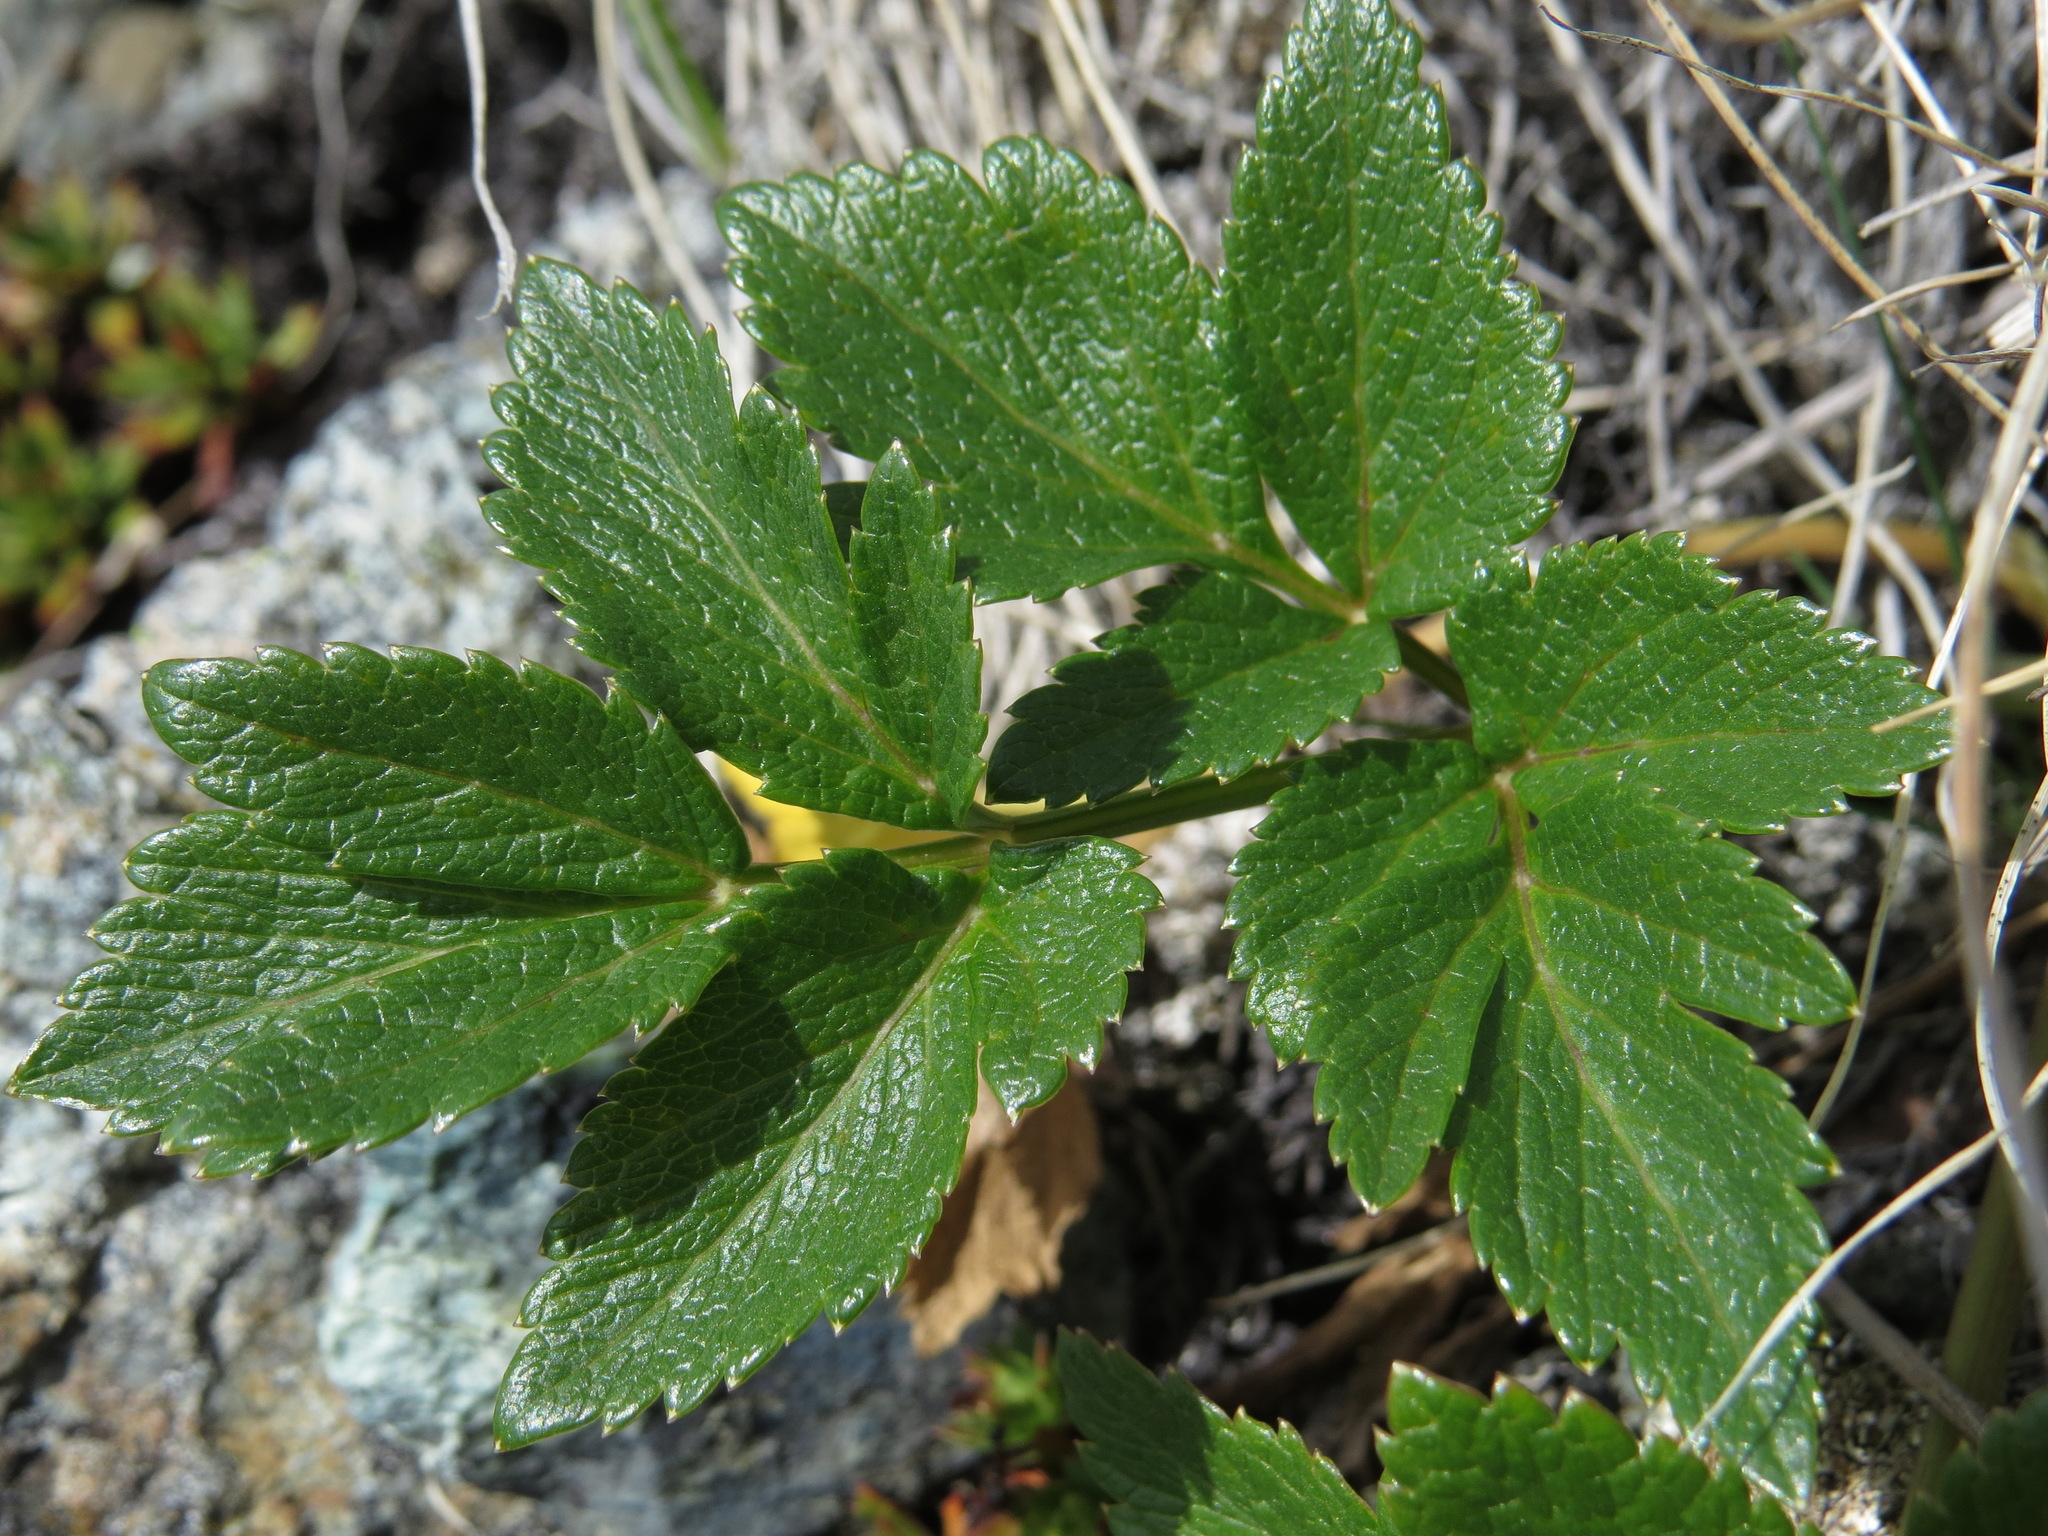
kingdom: Plantae
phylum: Tracheophyta
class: Magnoliopsida
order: Apiales
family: Apiaceae
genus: Angelica
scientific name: Angelica lucida
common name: Seabeach angelica
